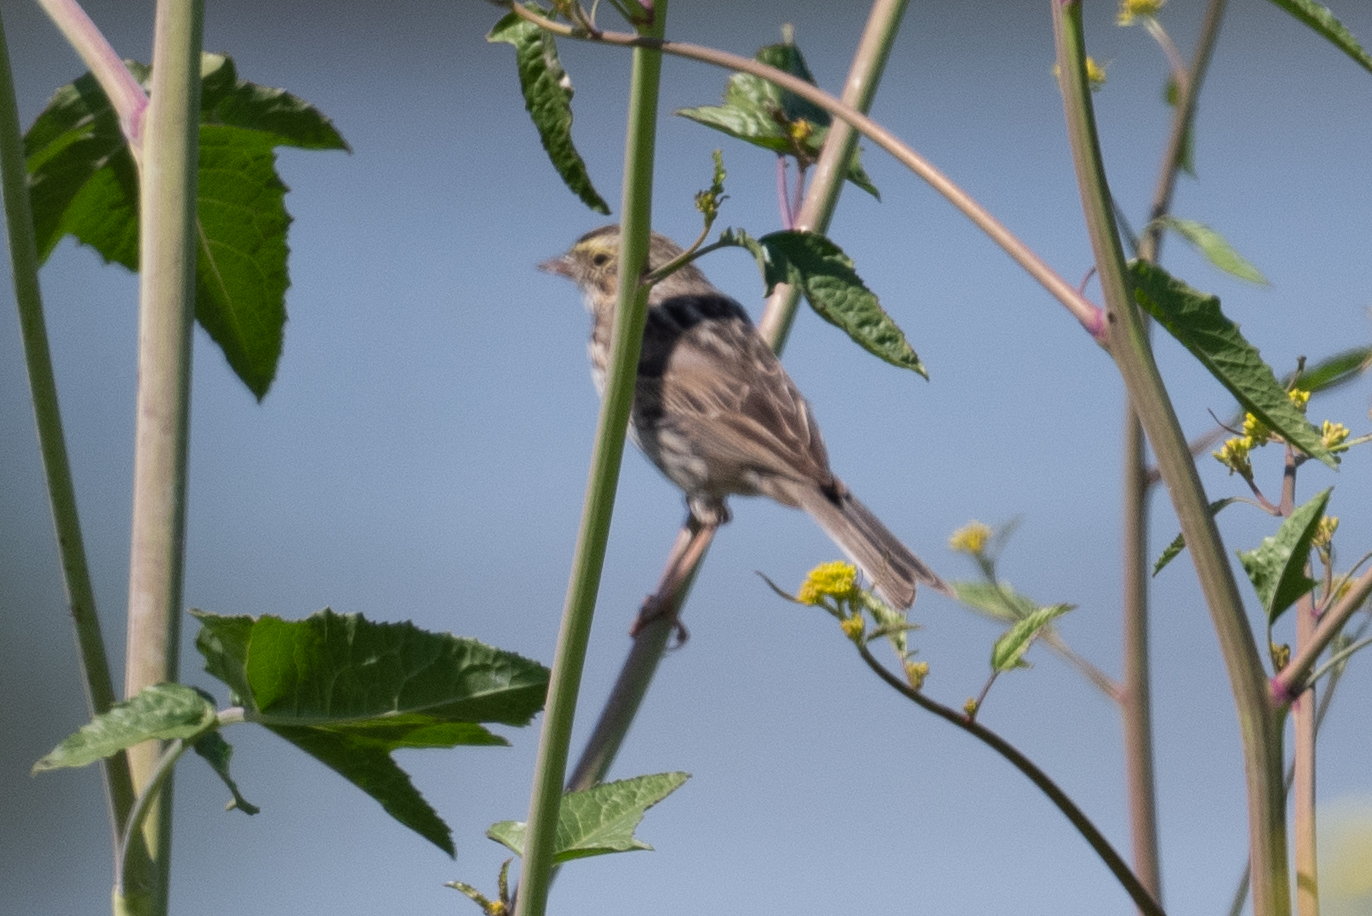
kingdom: Animalia
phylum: Chordata
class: Aves
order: Passeriformes
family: Passerellidae
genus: Passerculus
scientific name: Passerculus sandwichensis
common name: Savannah sparrow
